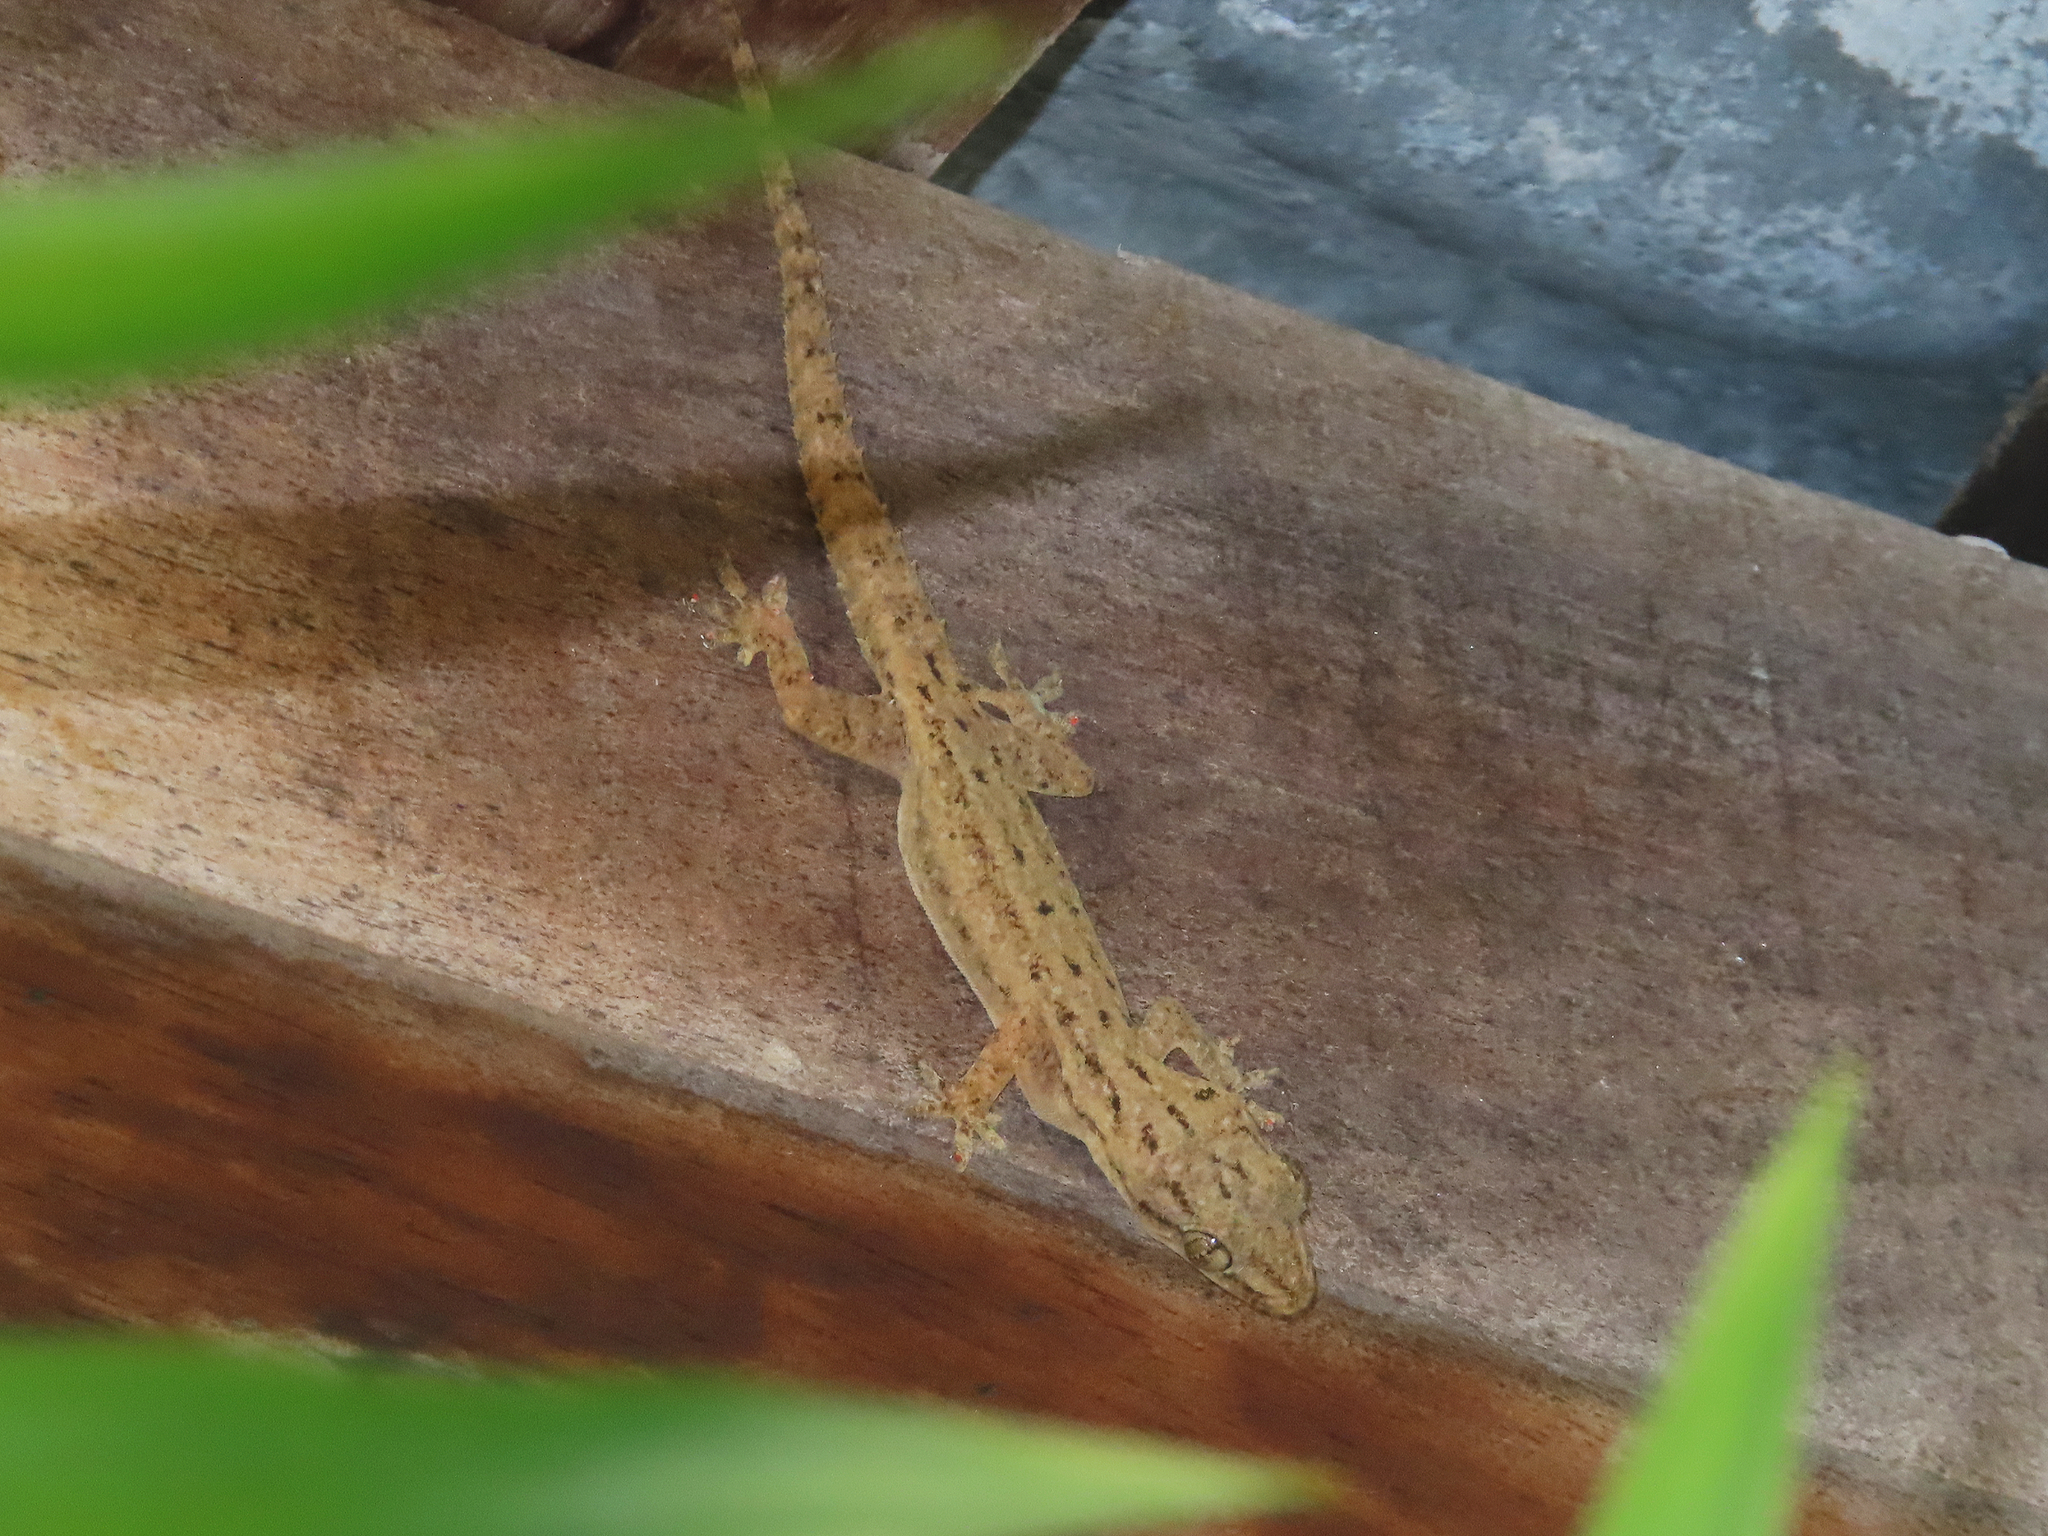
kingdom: Animalia
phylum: Chordata
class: Squamata
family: Gekkonidae
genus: Hemidactylus
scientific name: Hemidactylus frenatus
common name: Common house gecko
